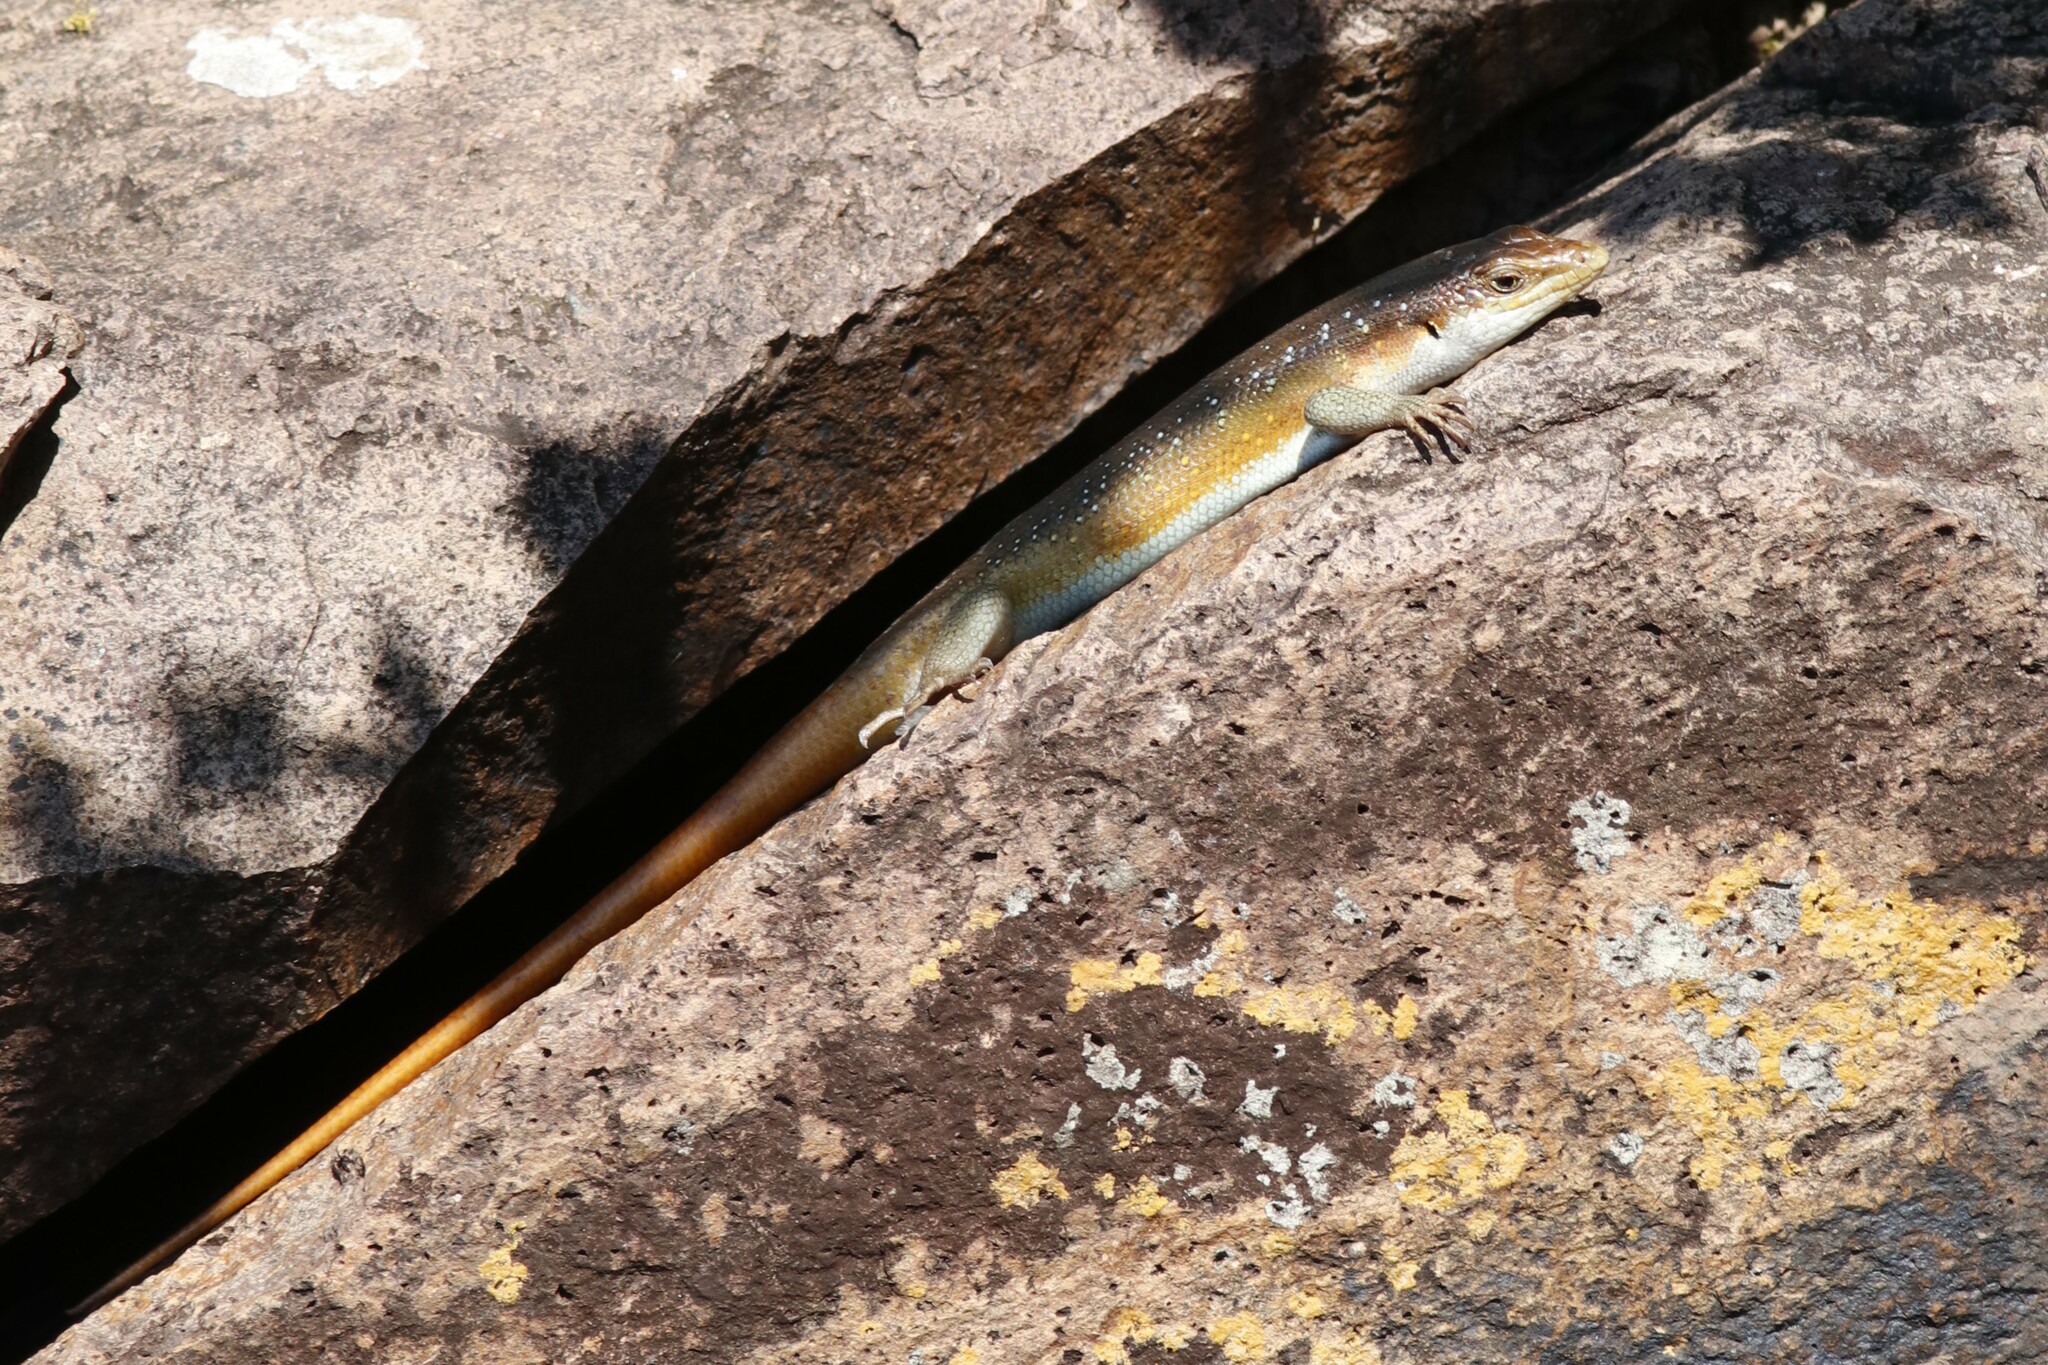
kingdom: Animalia
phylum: Chordata
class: Squamata
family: Scincidae
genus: Trachylepis
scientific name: Trachylepis margaritifera
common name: Rainbow skink
